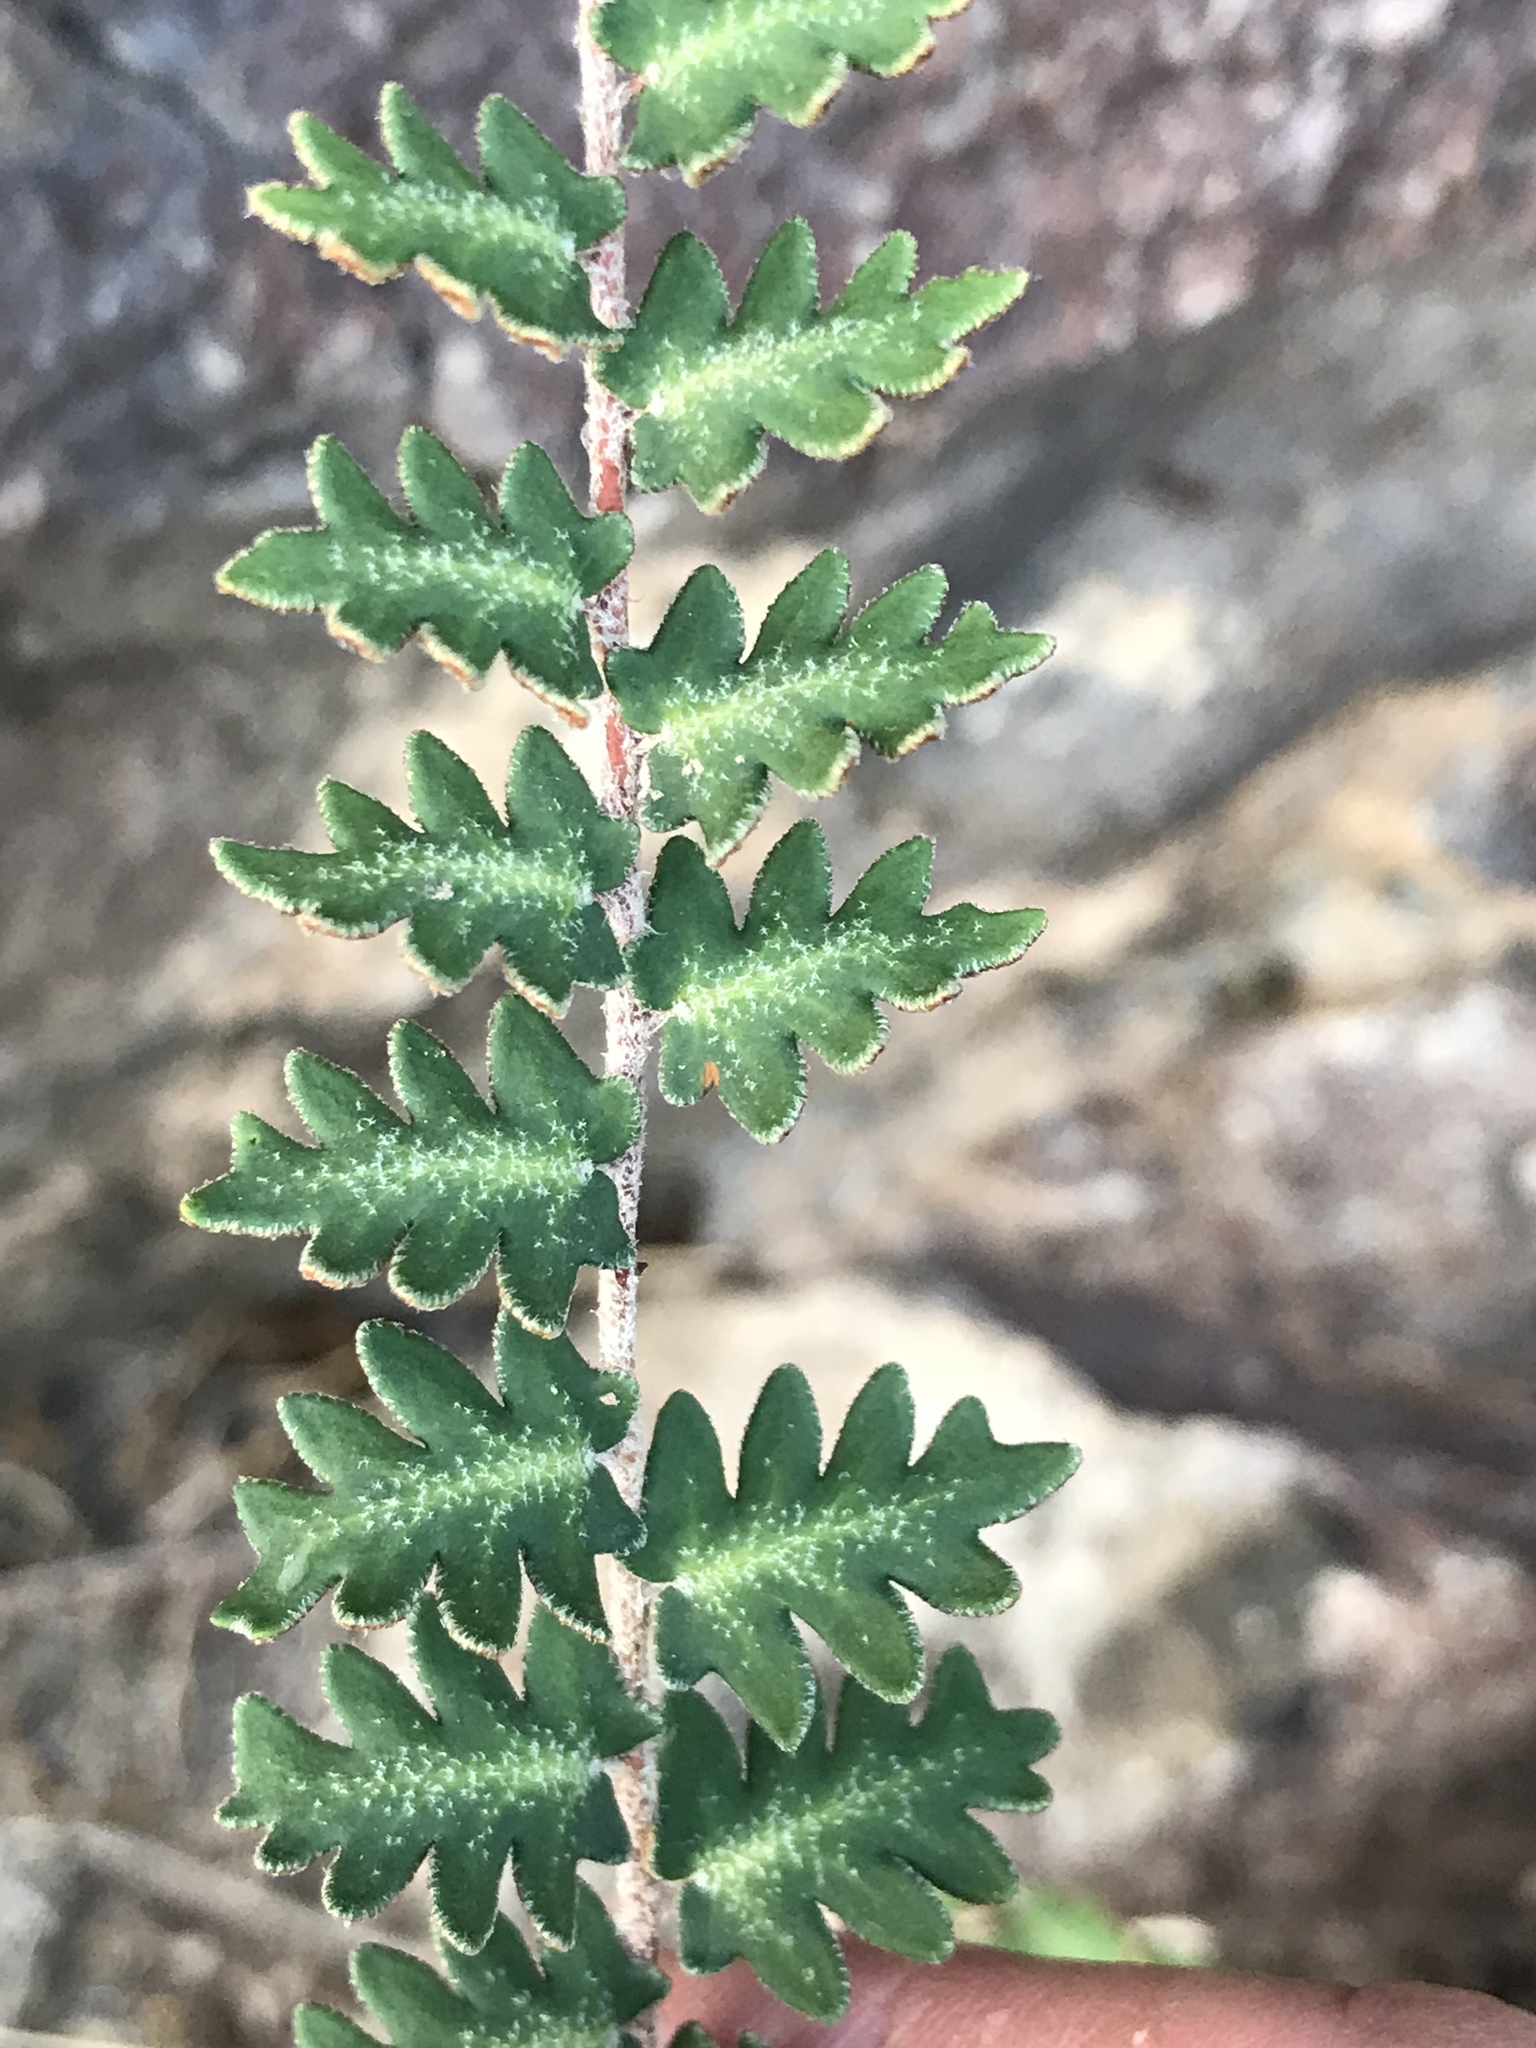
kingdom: Plantae
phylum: Tracheophyta
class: Polypodiopsida
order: Polypodiales
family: Pteridaceae
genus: Astrolepis
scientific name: Astrolepis sinuata
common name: Wavy scaly cloakfern
